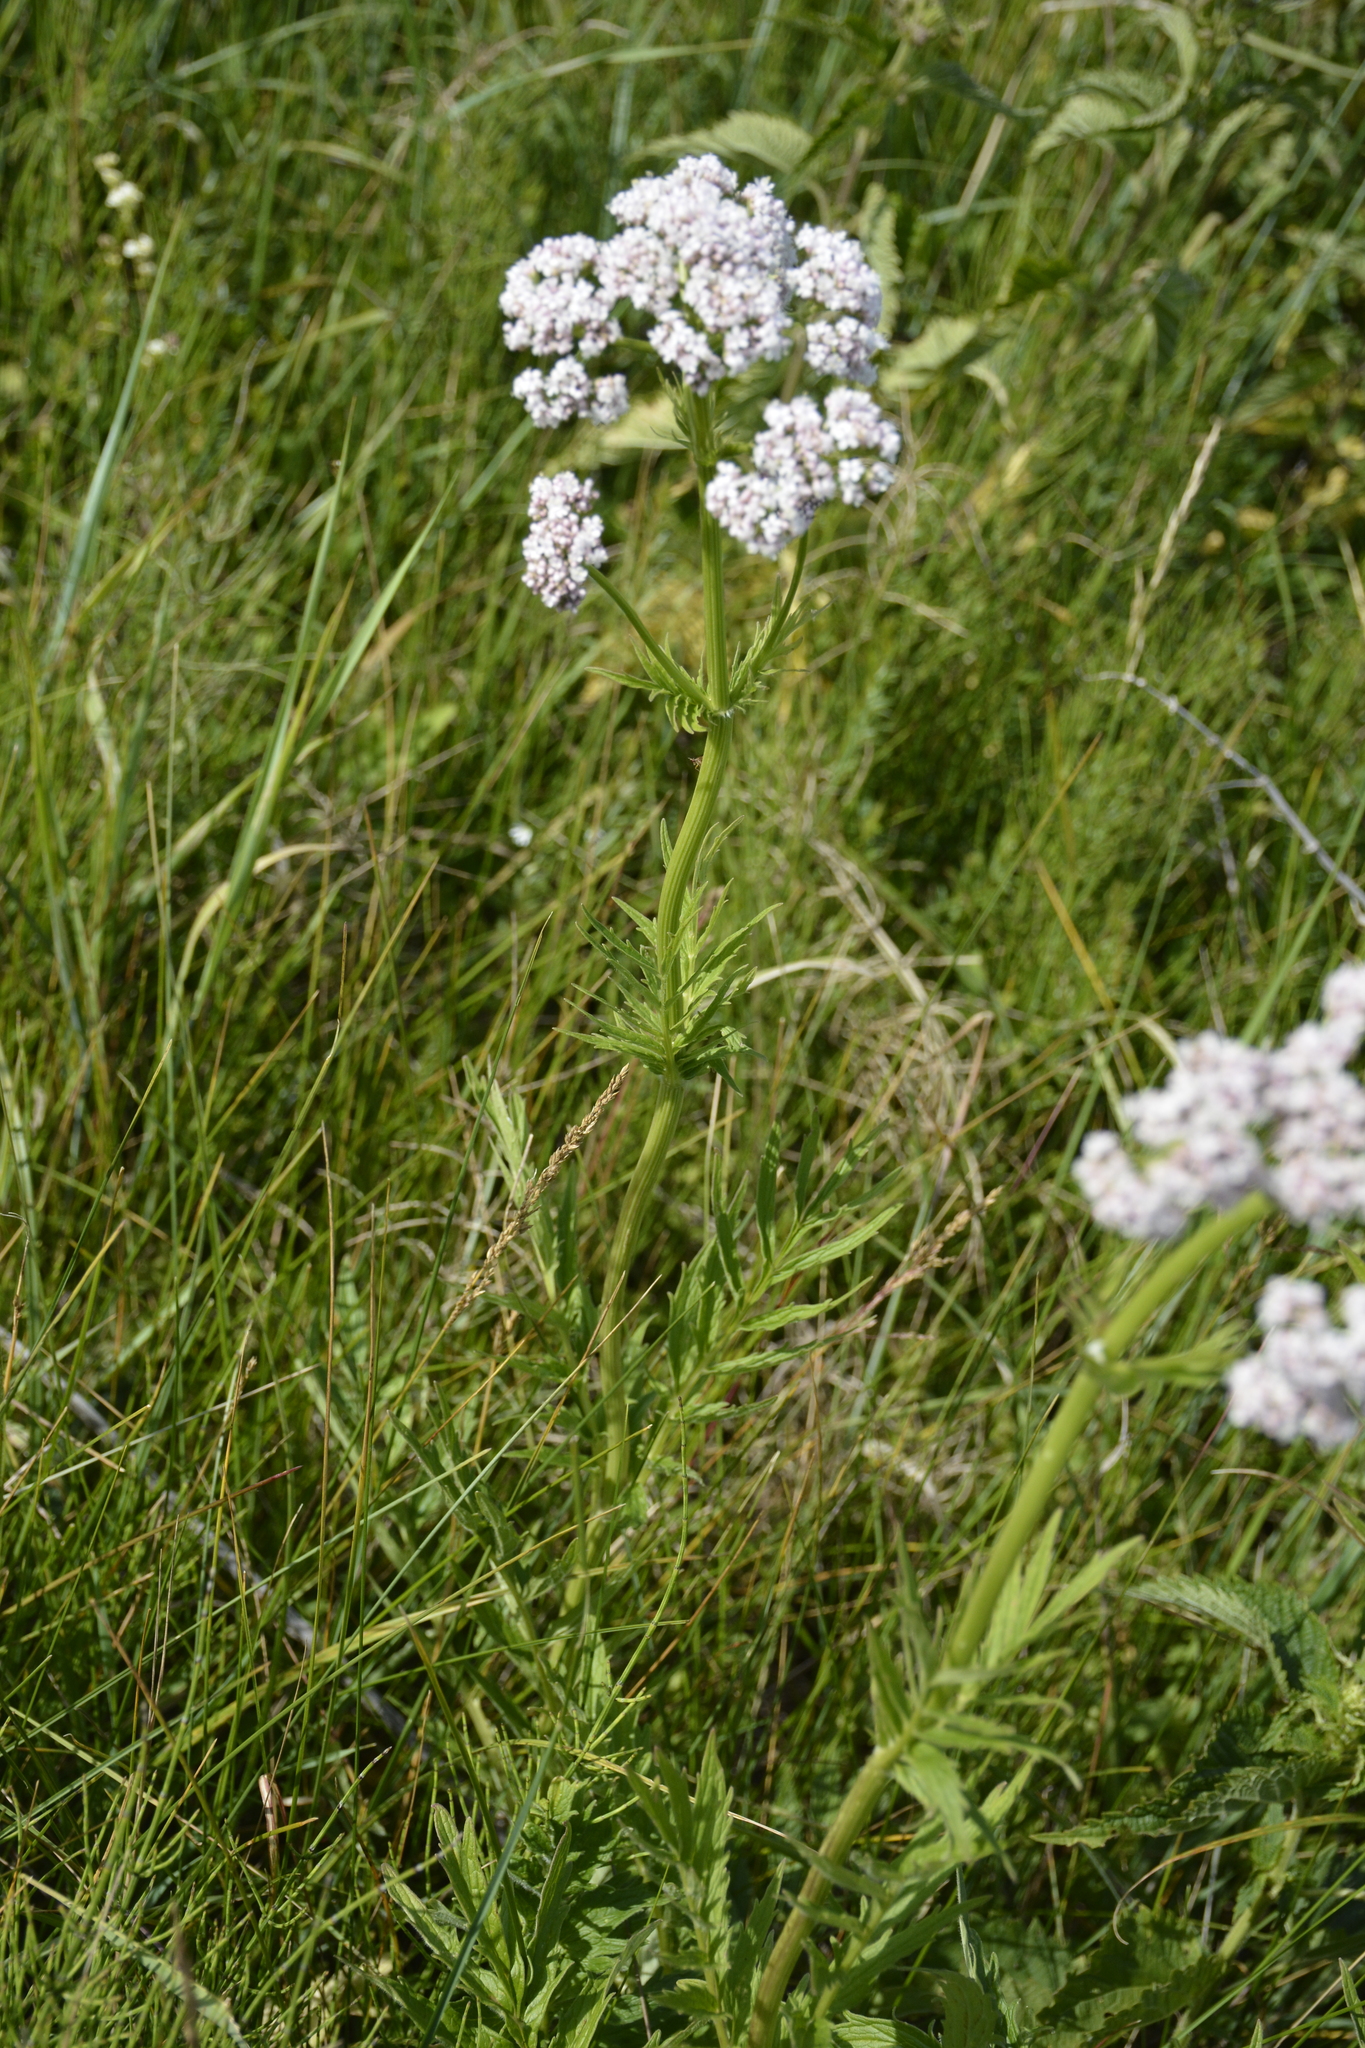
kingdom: Plantae
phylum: Tracheophyta
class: Magnoliopsida
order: Dipsacales
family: Caprifoliaceae
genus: Valeriana
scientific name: Valeriana officinalis
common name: Common valerian
